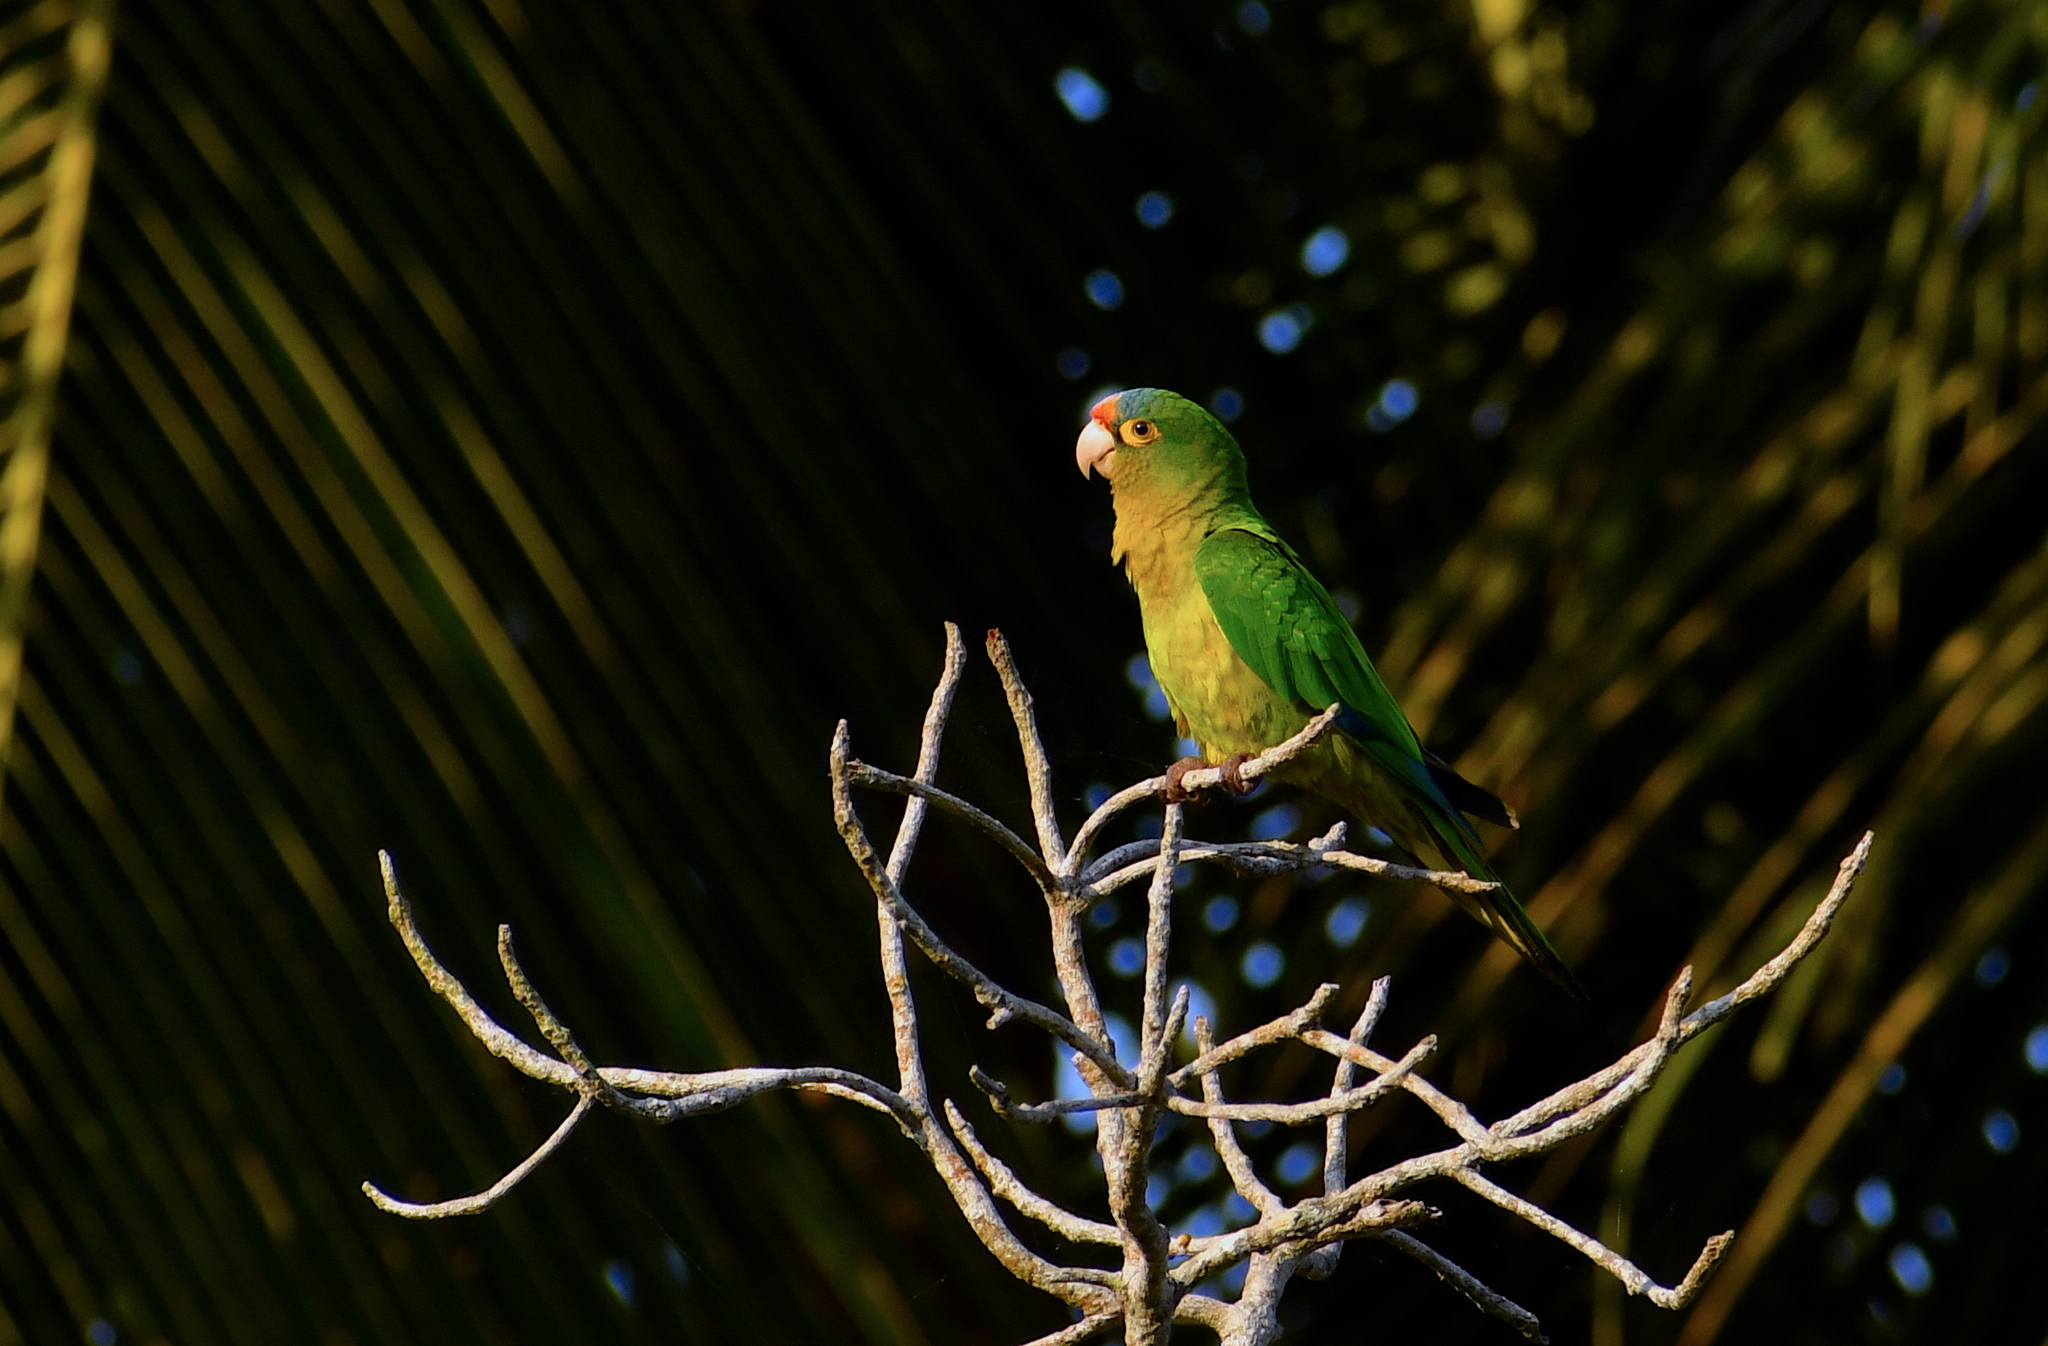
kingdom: Animalia
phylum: Chordata
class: Aves
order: Psittaciformes
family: Psittacidae
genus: Aratinga
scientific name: Aratinga canicularis
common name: Orange-fronted parakeet
